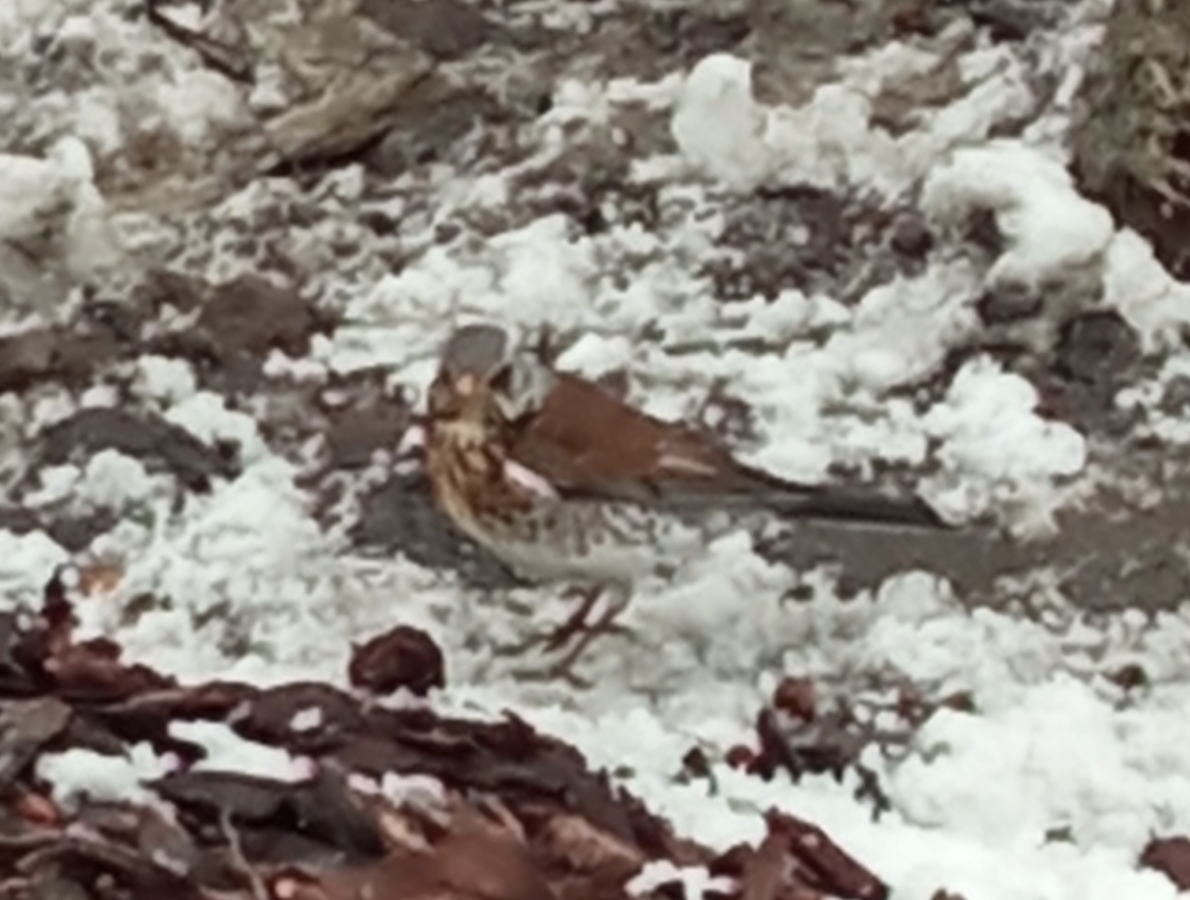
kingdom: Animalia
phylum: Chordata
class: Aves
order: Passeriformes
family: Turdidae
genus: Turdus
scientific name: Turdus pilaris
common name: Fieldfare
